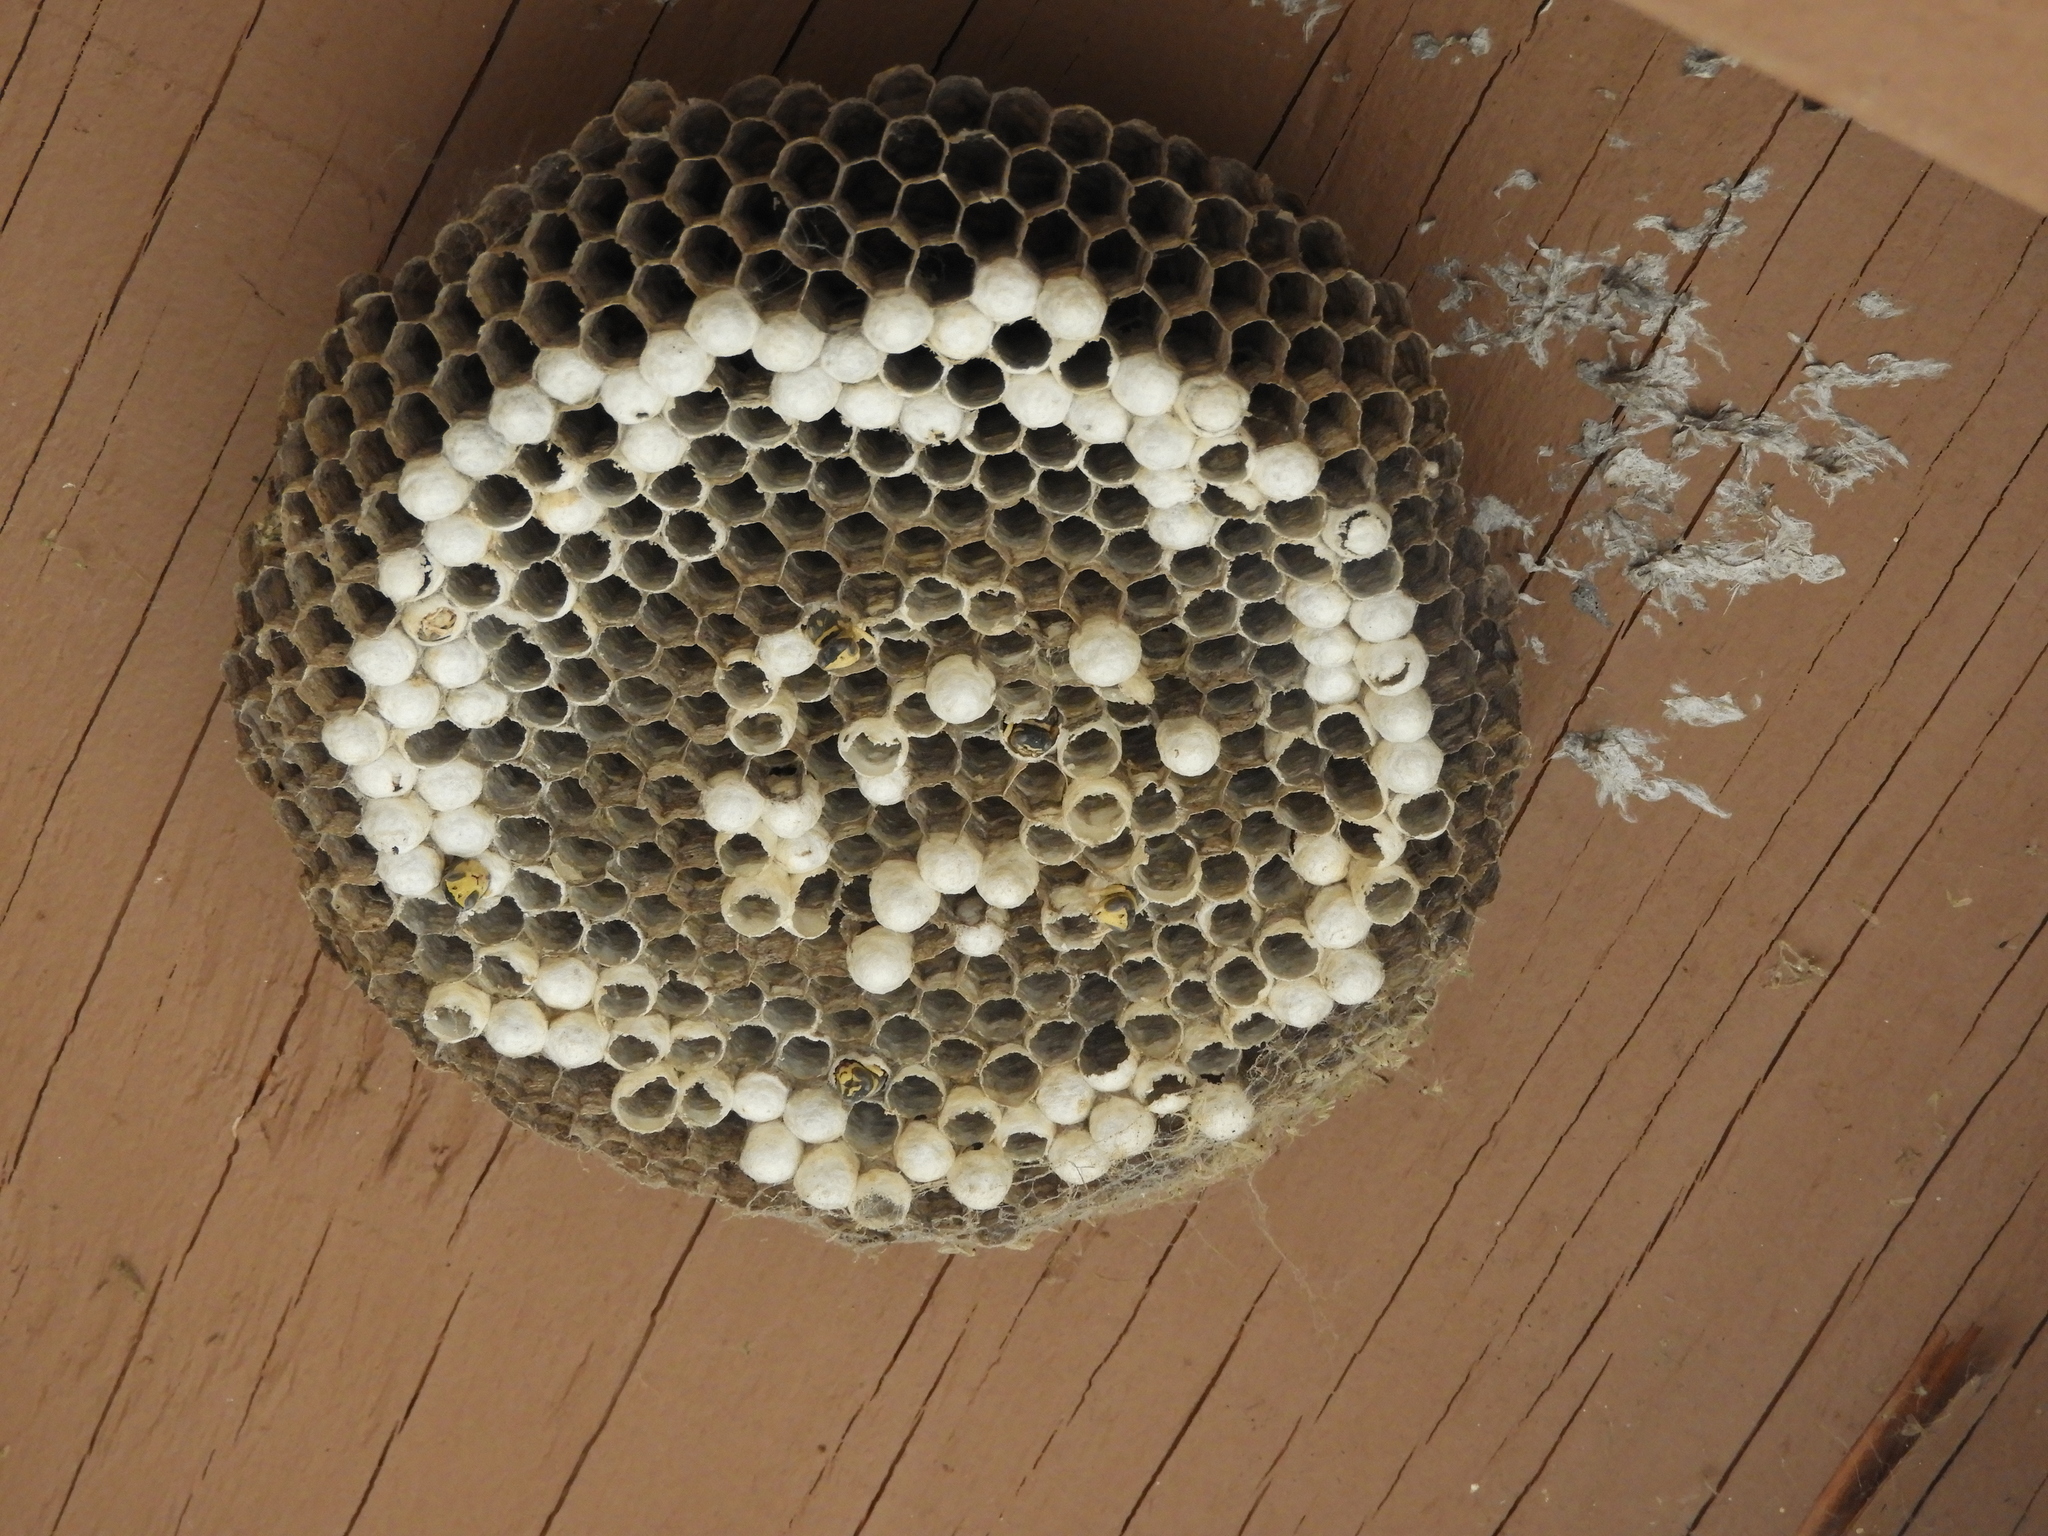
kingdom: Animalia
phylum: Arthropoda
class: Insecta
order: Hymenoptera
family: Eumenidae
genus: Polistes
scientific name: Polistes dominula
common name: Paper wasp
